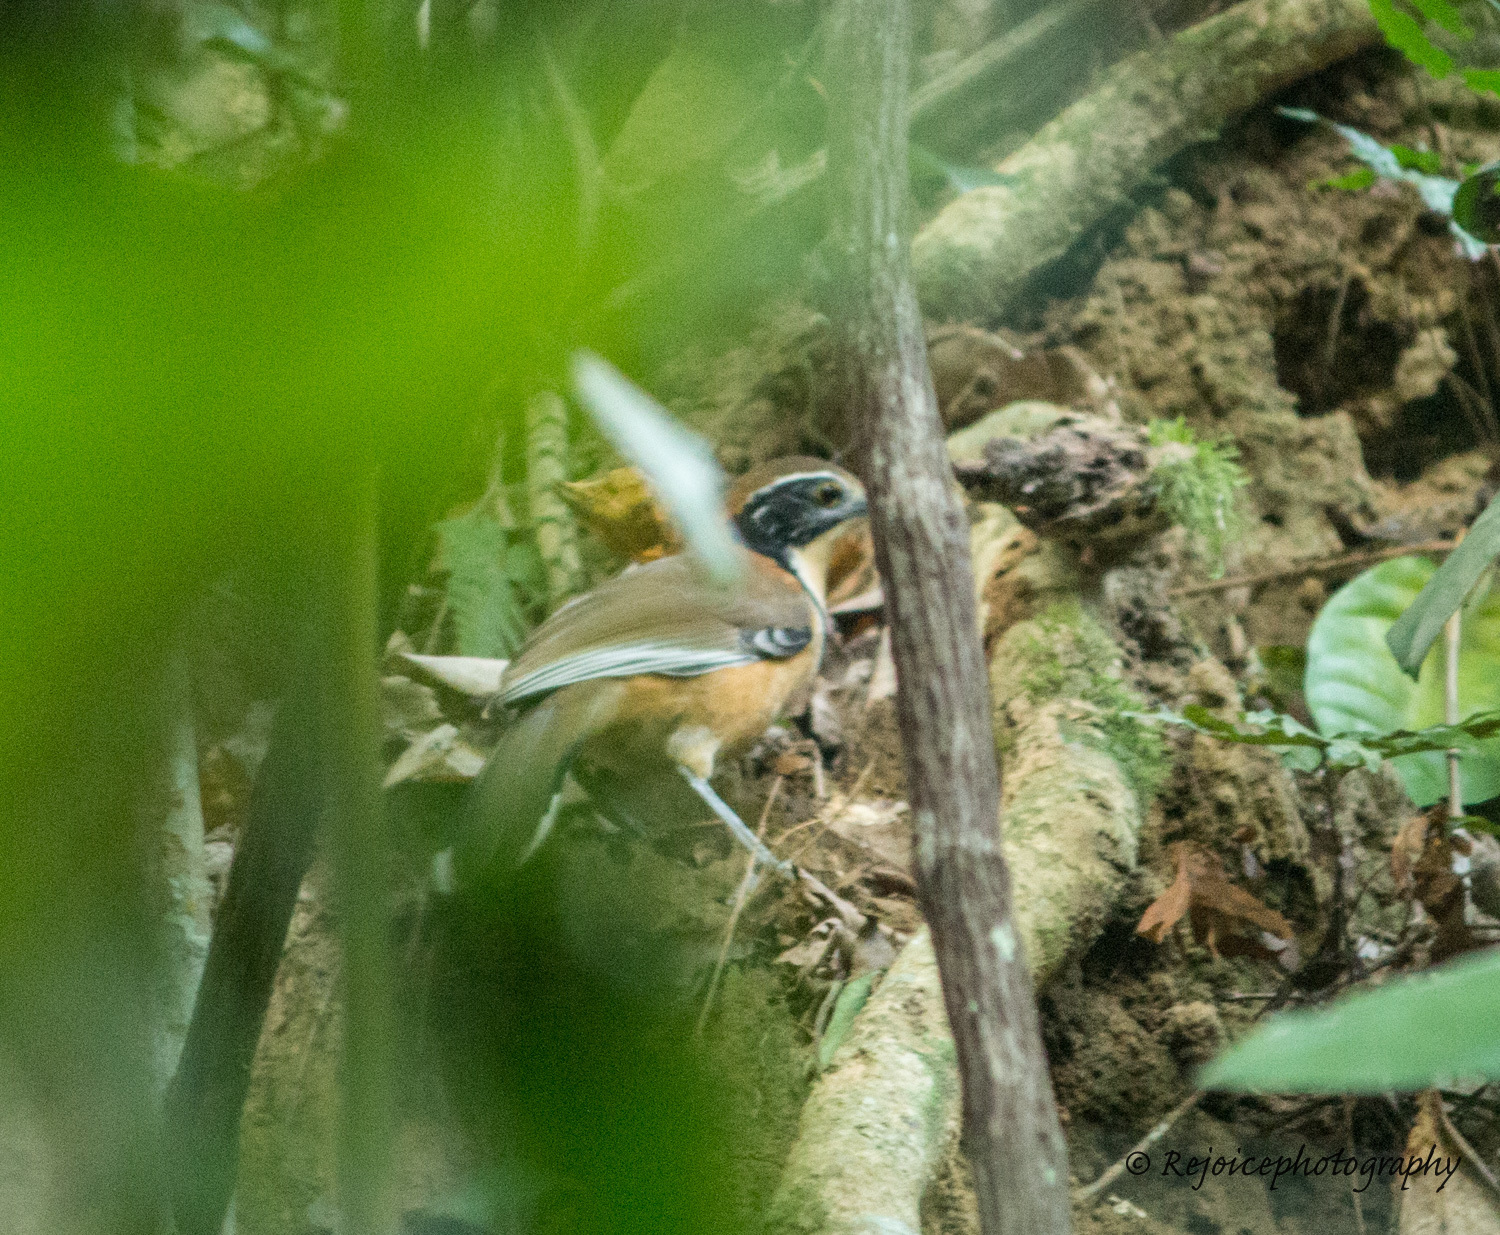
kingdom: Animalia
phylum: Chordata
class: Aves
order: Passeriformes
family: Leiothrichidae
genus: Garrulax
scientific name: Garrulax pectoralis
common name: Greater necklaced laughingthrush
